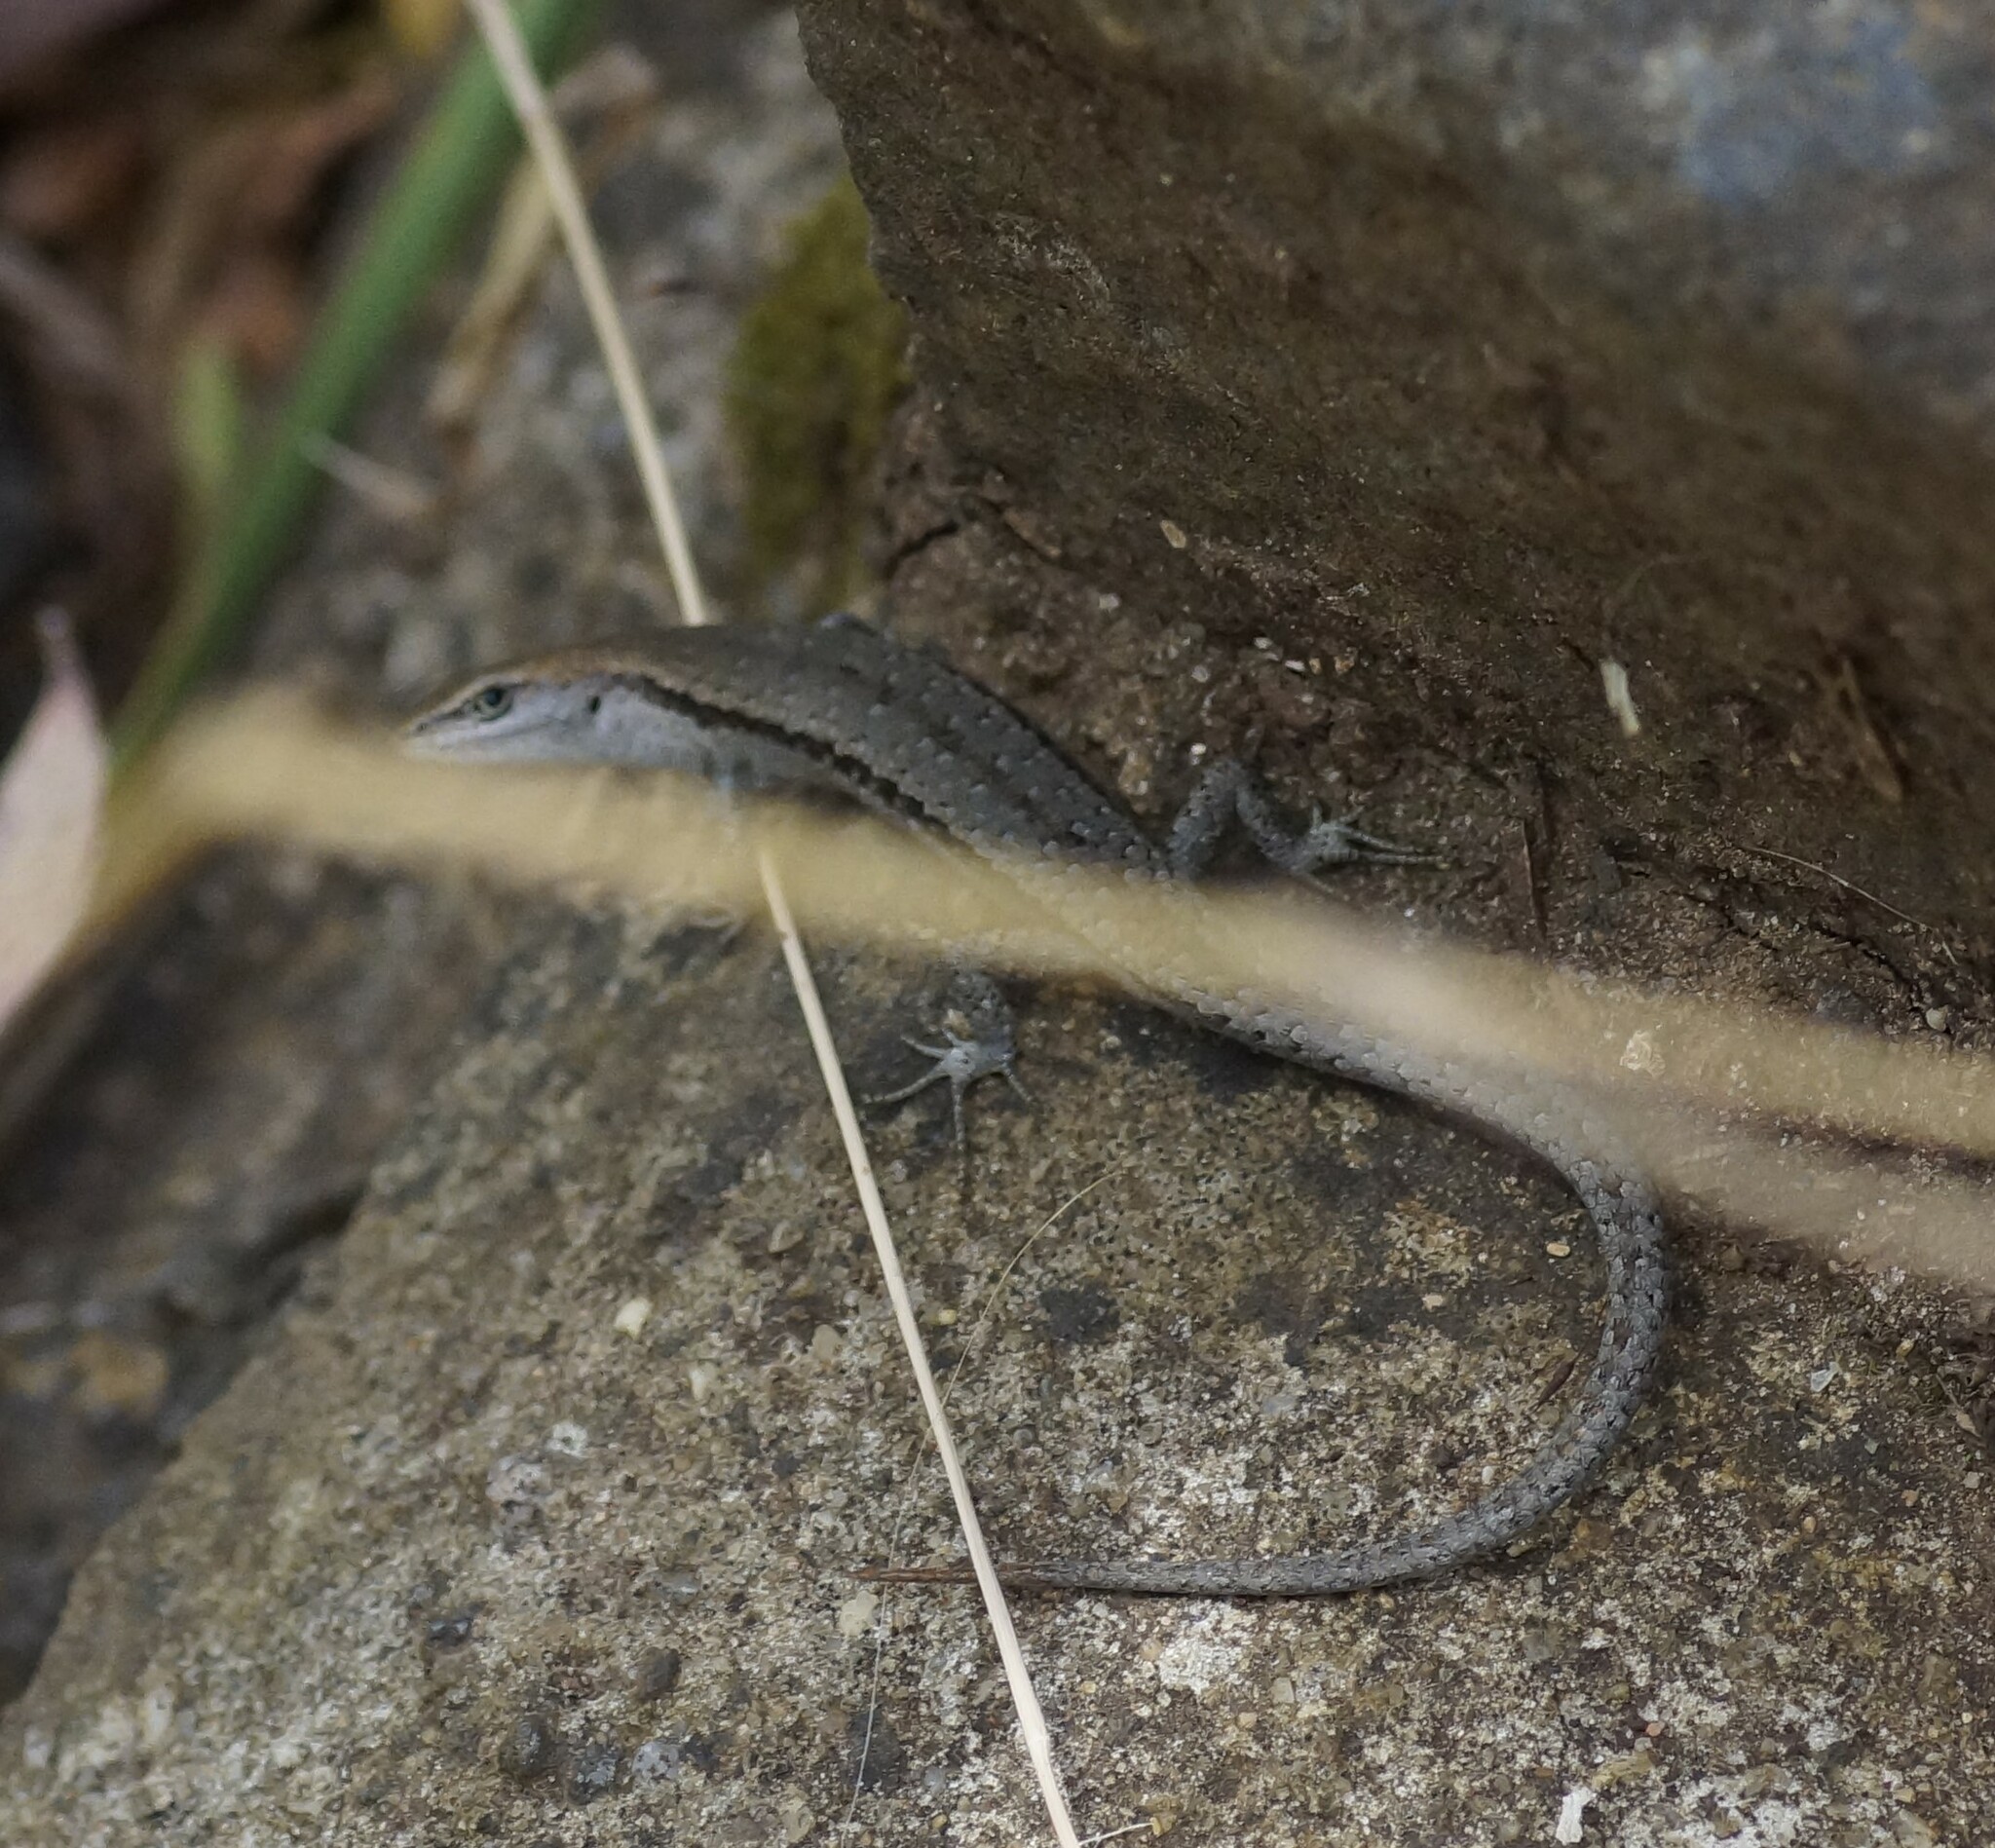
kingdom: Animalia
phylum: Chordata
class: Squamata
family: Scincidae
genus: Lampropholis
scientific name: Lampropholis guichenoti
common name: Garden skink
